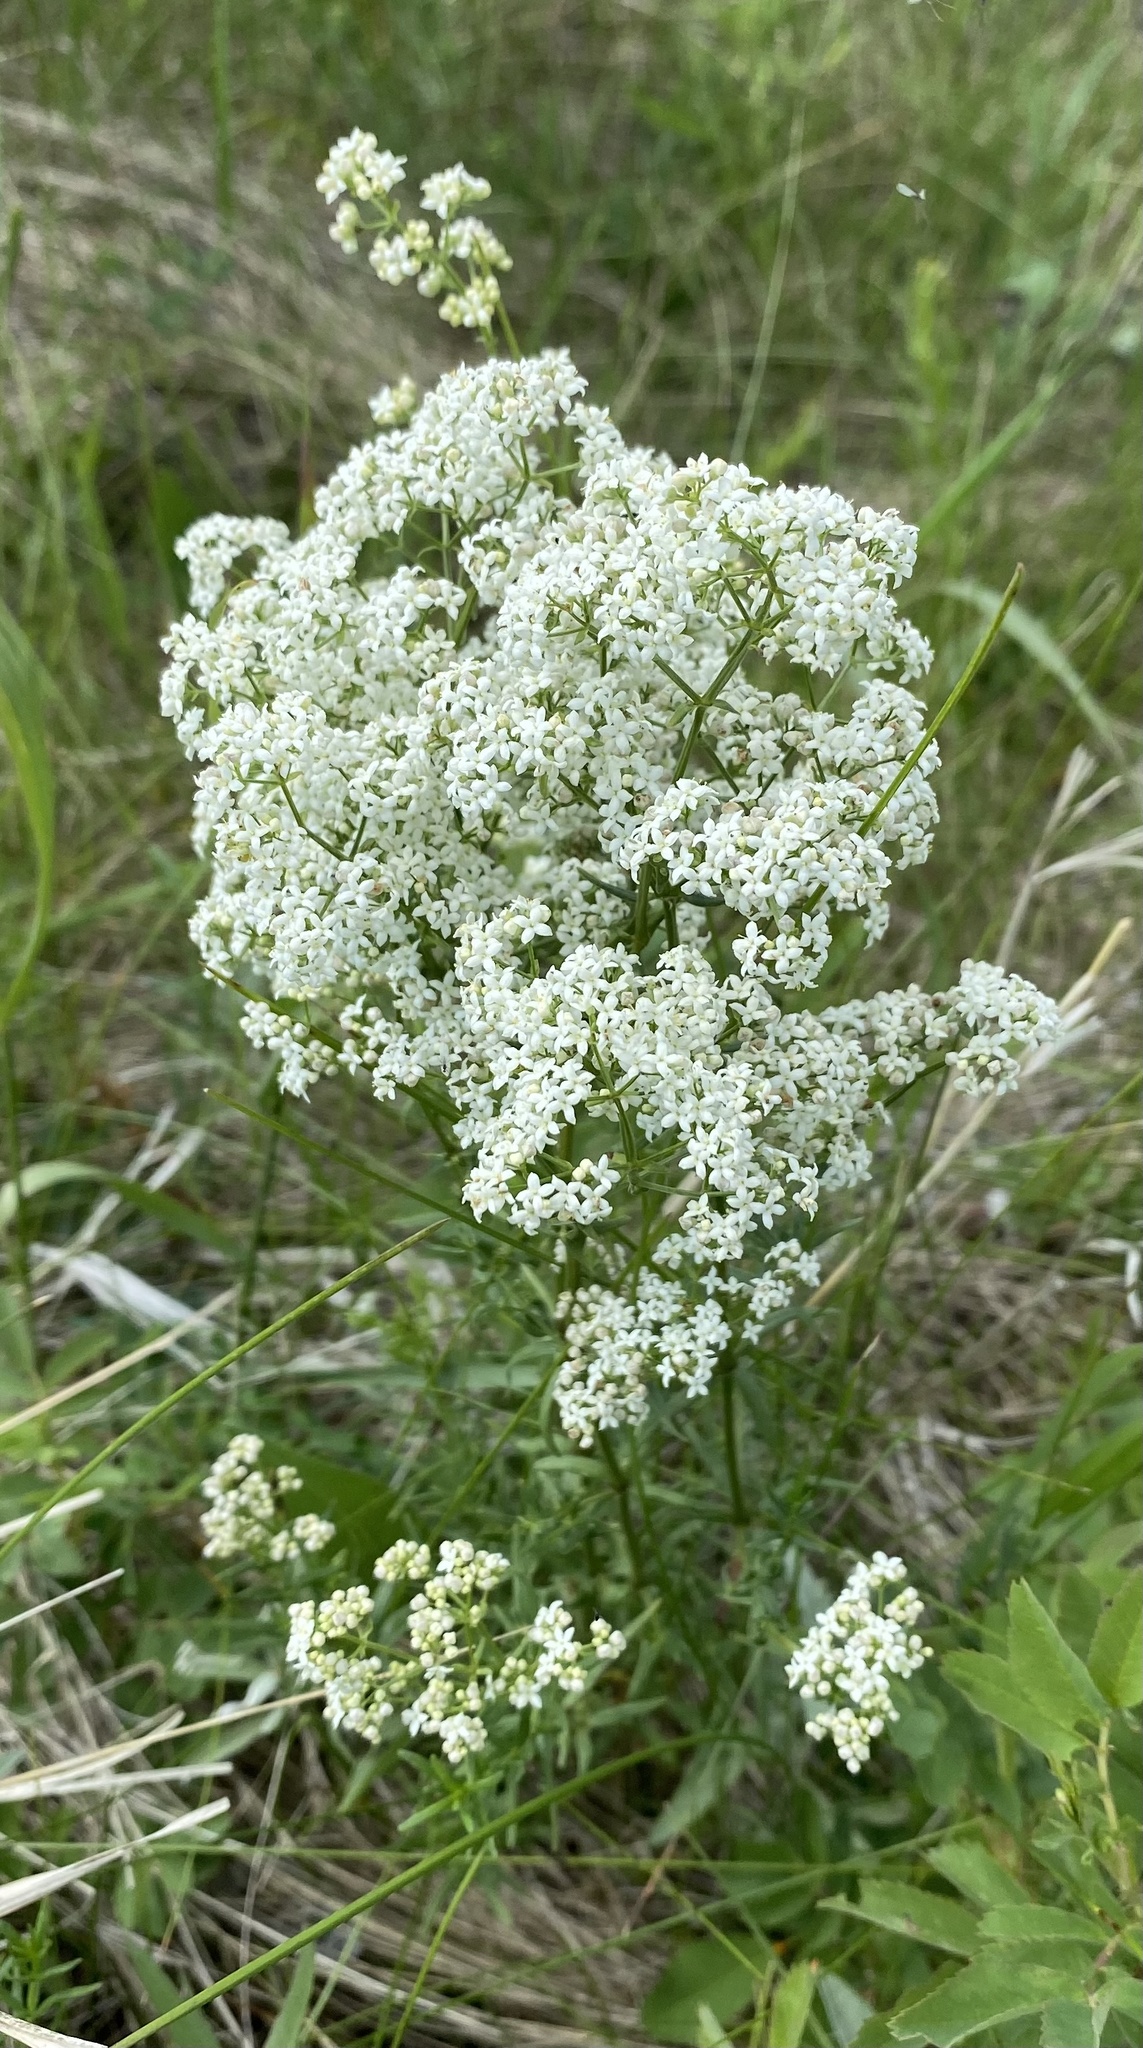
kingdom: Plantae
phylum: Tracheophyta
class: Magnoliopsida
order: Gentianales
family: Rubiaceae
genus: Galium
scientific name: Galium boreale
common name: Northern bedstraw
